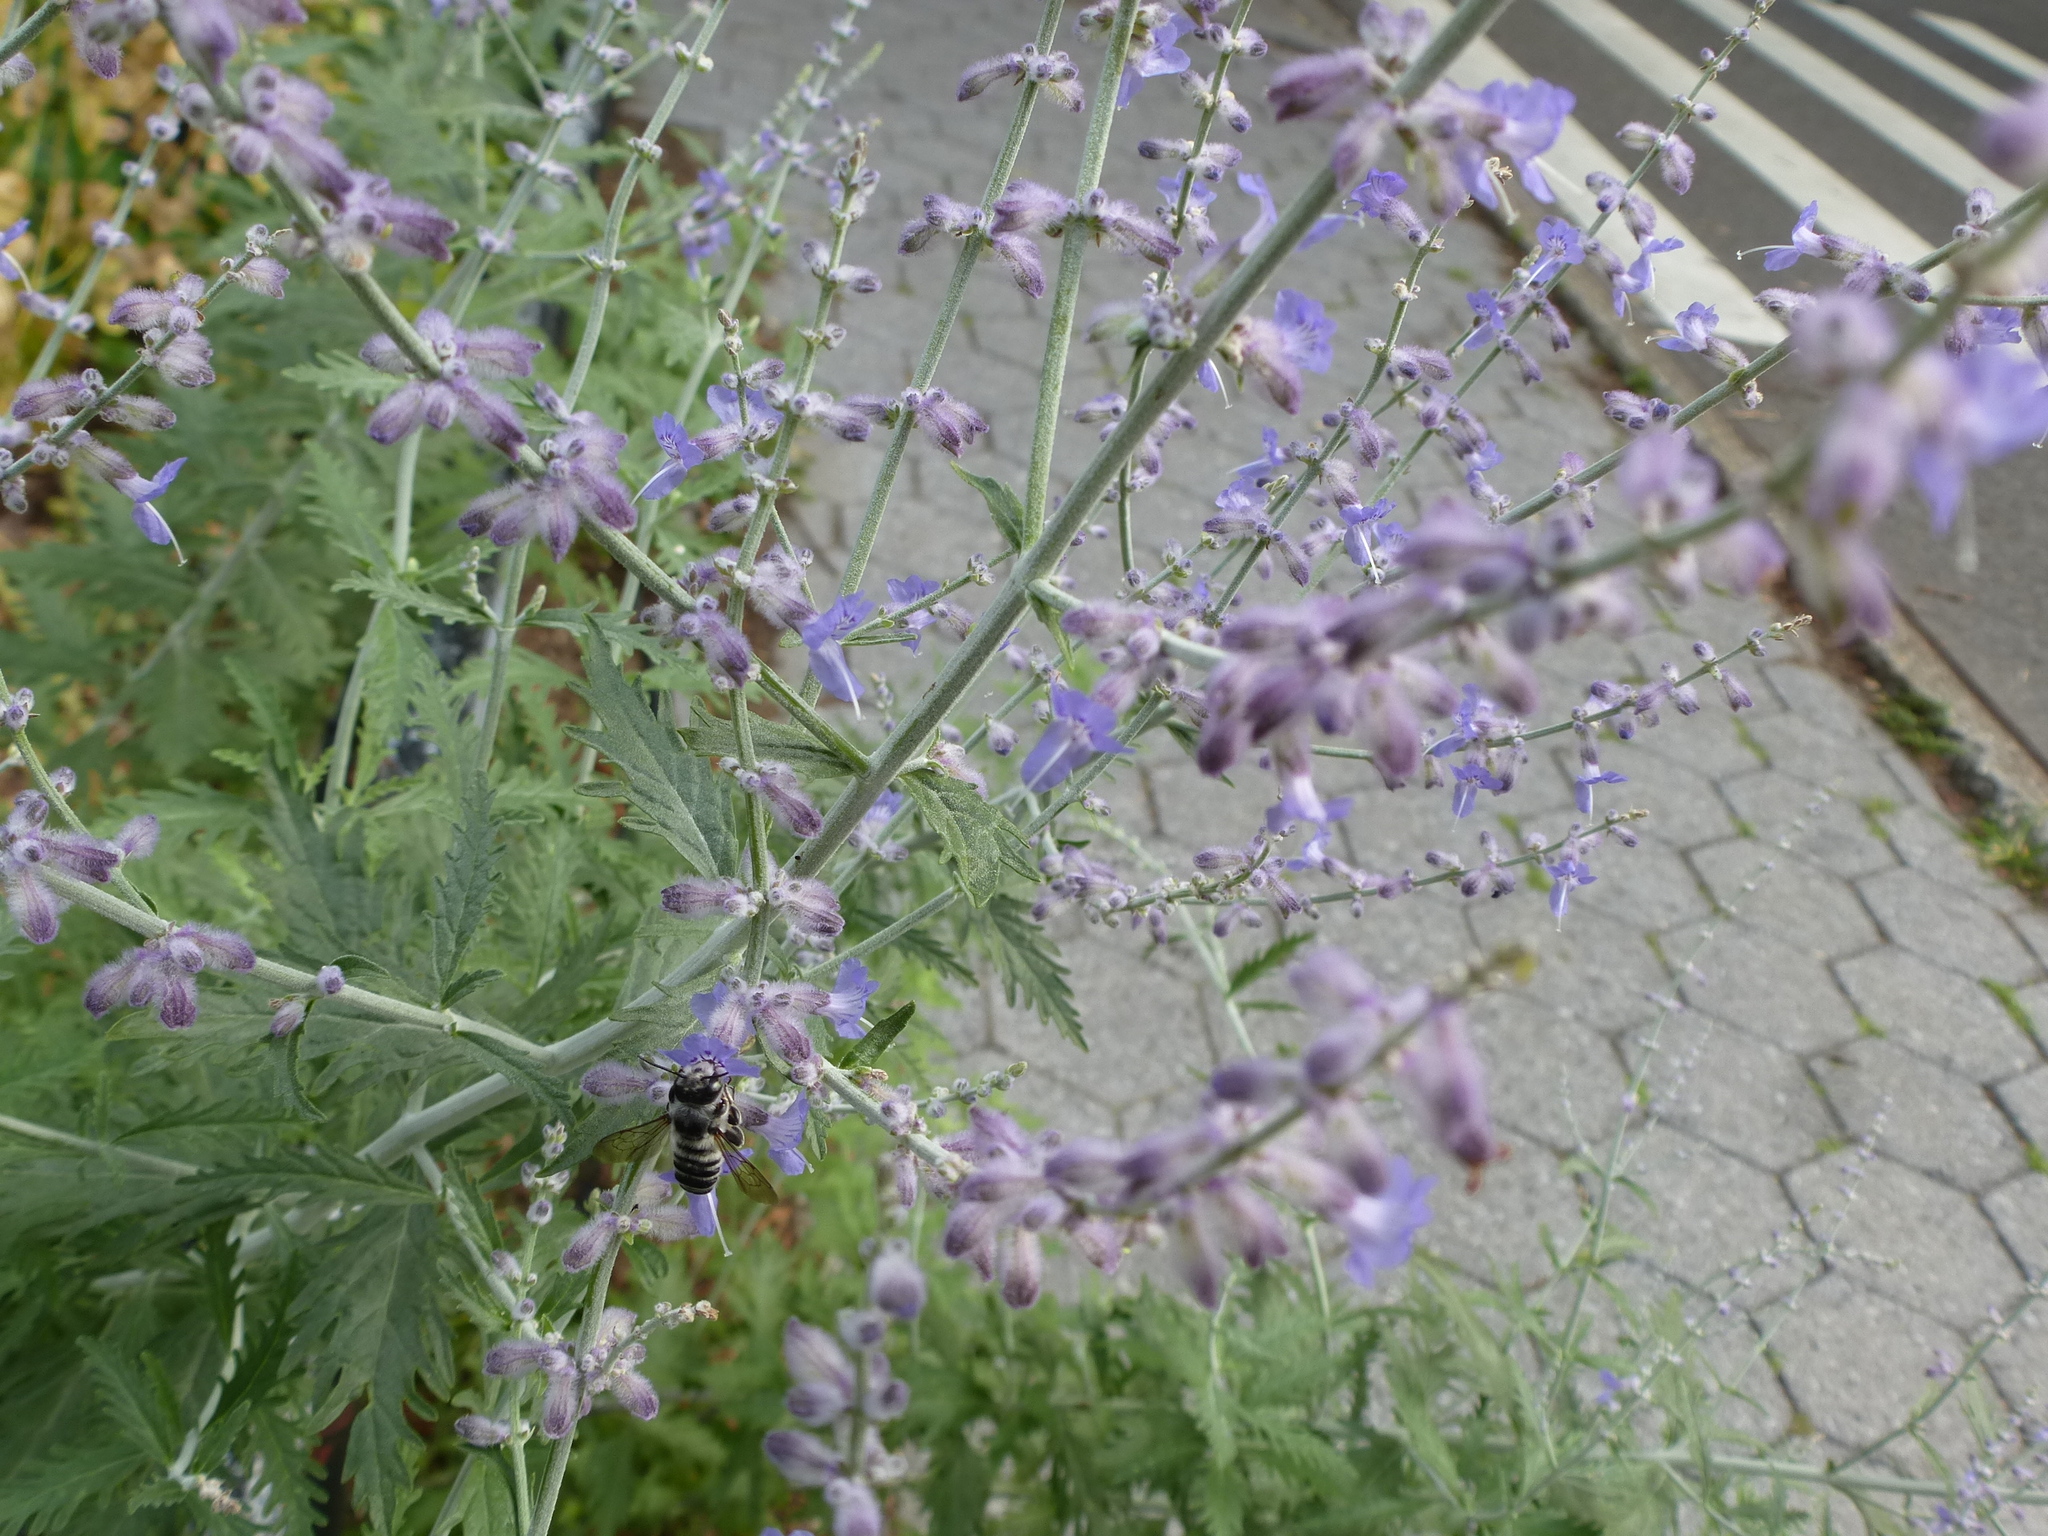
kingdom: Animalia
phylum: Arthropoda
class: Insecta
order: Hymenoptera
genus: Litomegachile
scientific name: Litomegachile
